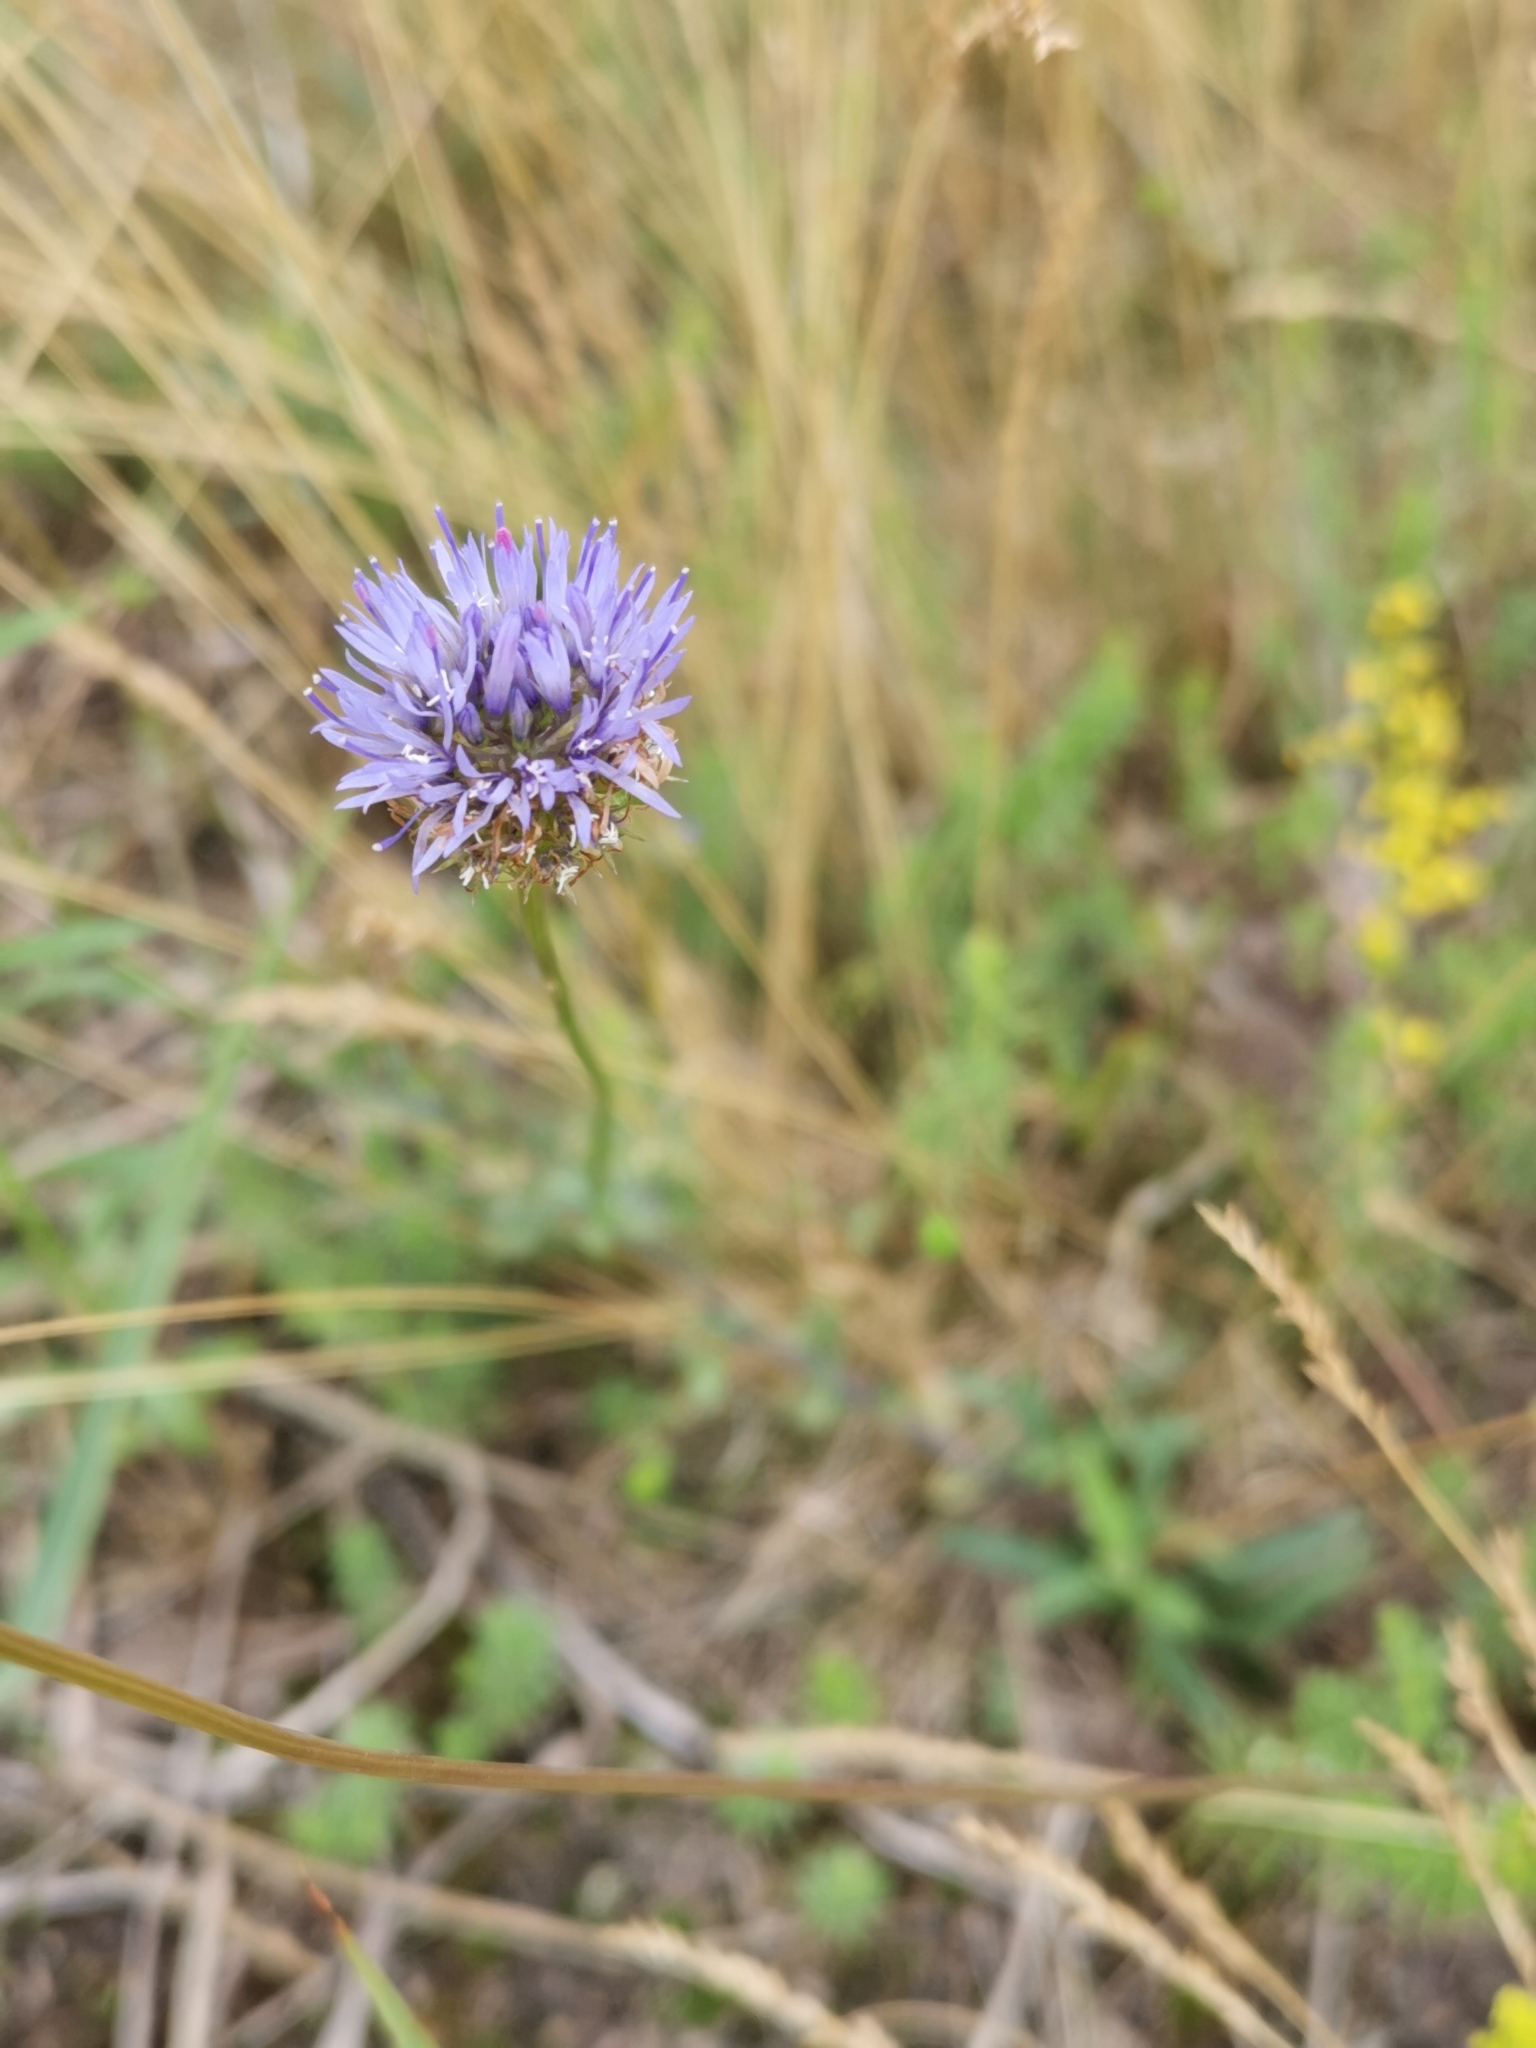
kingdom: Plantae
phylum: Tracheophyta
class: Magnoliopsida
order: Asterales
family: Campanulaceae
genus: Jasione
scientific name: Jasione montana
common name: Sheep's-bit
